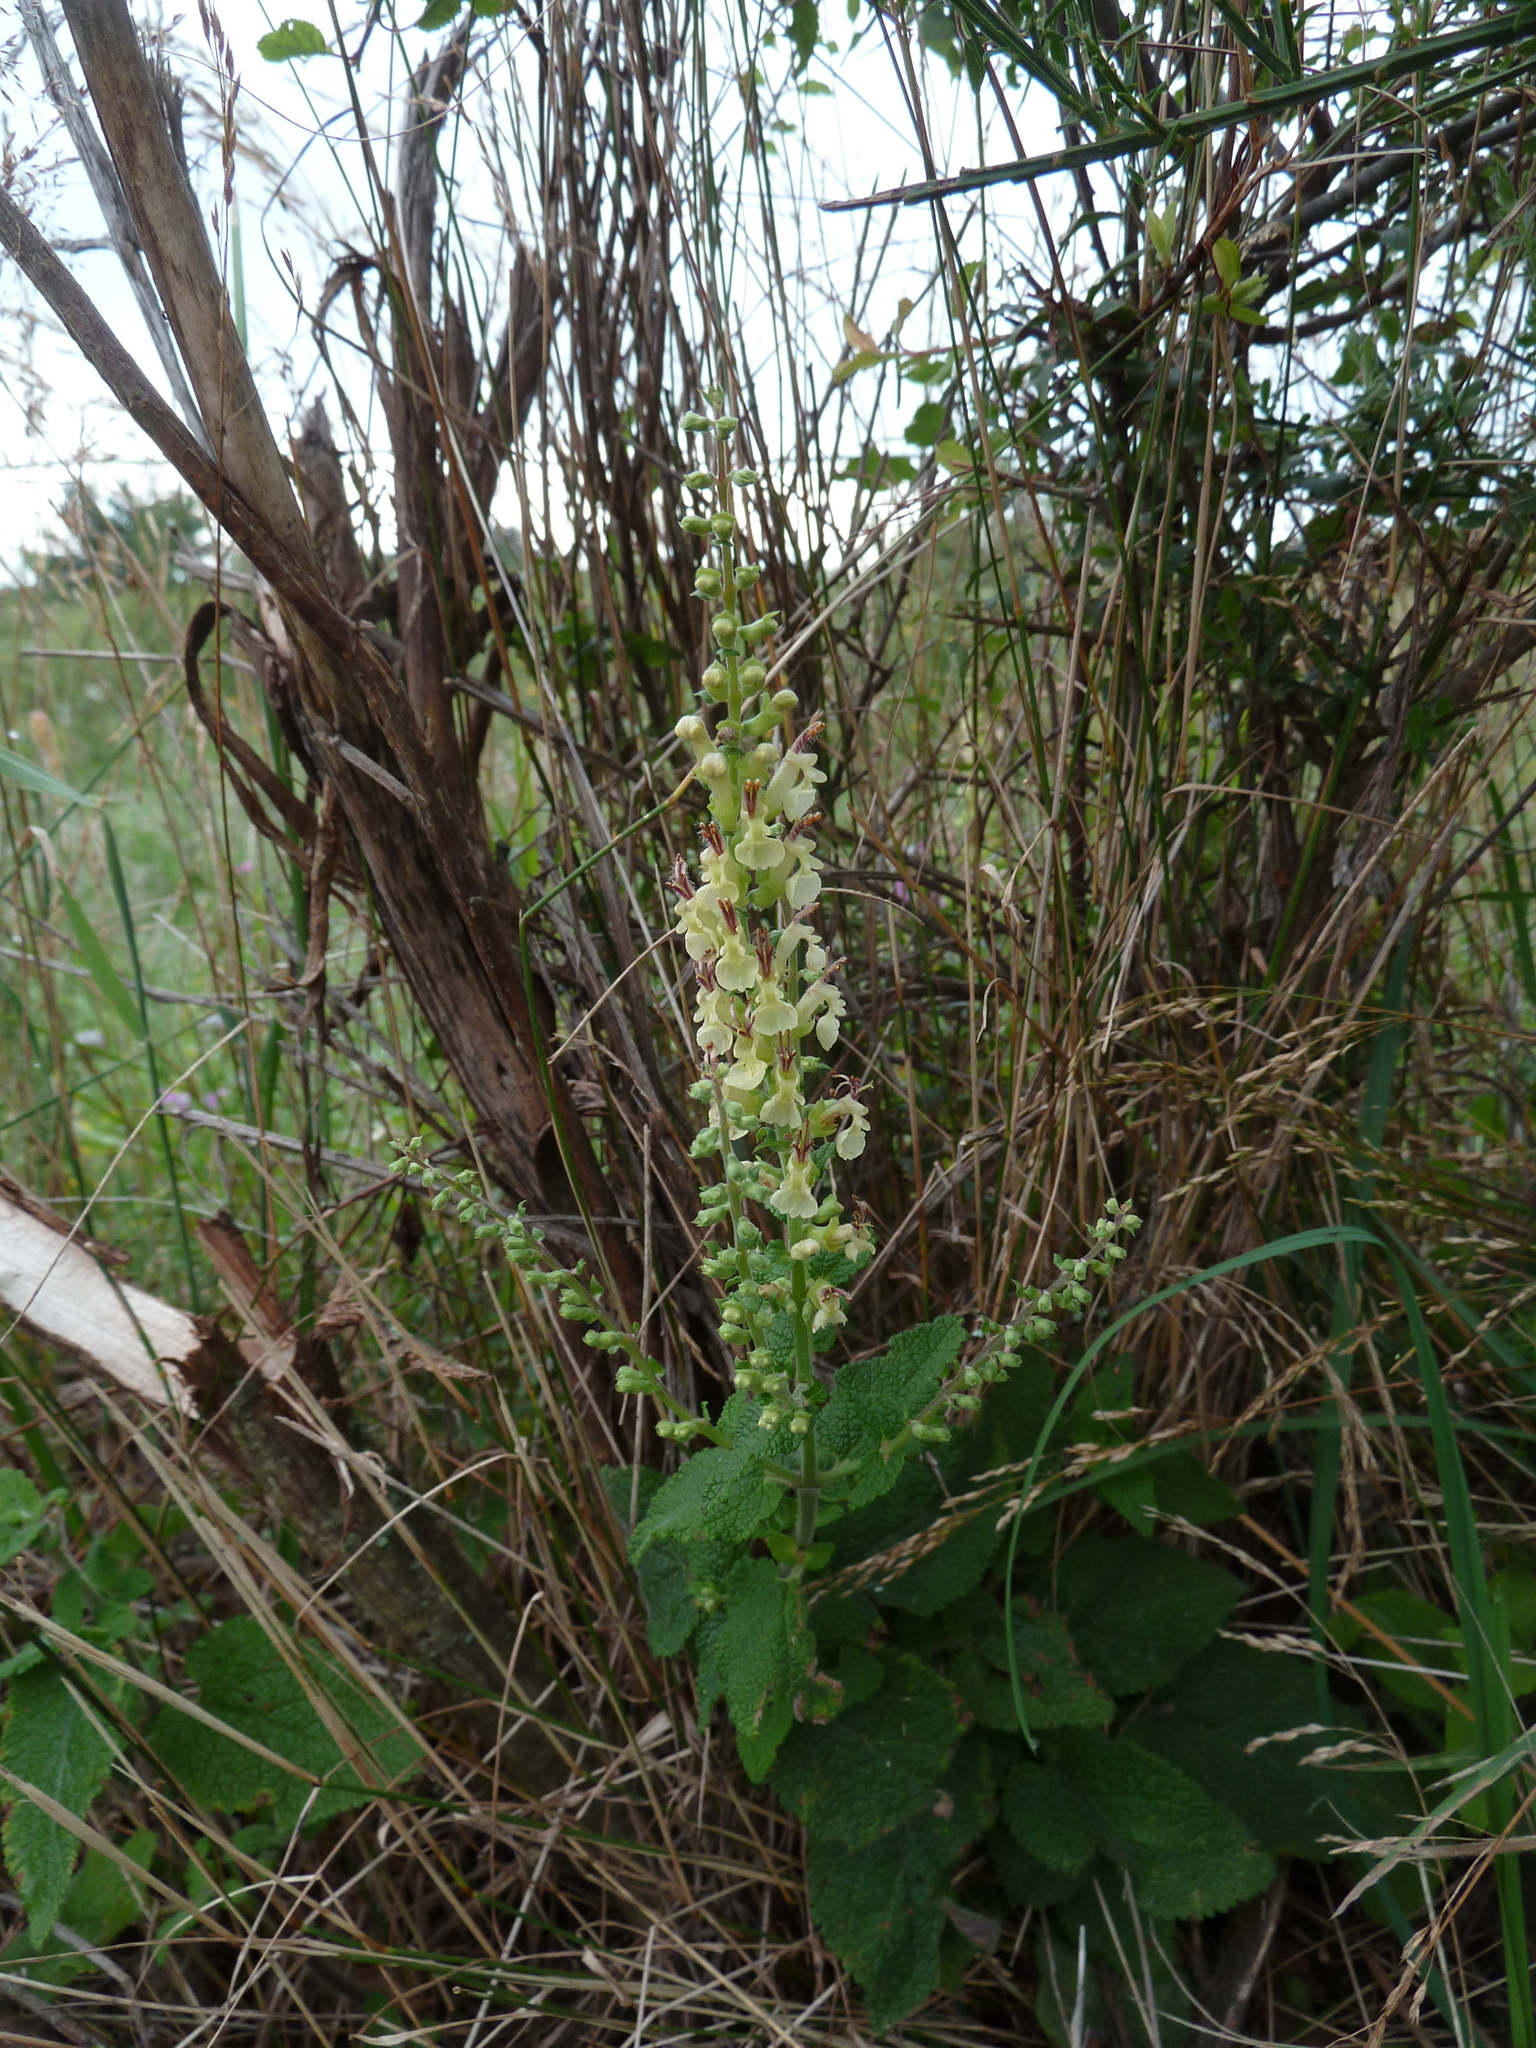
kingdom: Plantae
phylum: Tracheophyta
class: Magnoliopsida
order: Lamiales
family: Lamiaceae
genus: Teucrium
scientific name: Teucrium scorodonia
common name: Woodland germander
